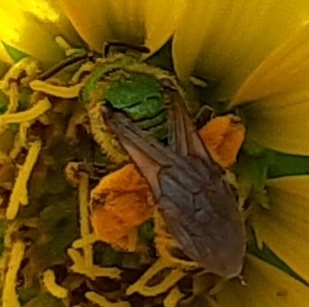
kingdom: Animalia
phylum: Arthropoda
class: Insecta
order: Hymenoptera
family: Halictidae
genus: Agapostemon
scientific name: Agapostemon virescens
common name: Bicolored striped sweat bee
